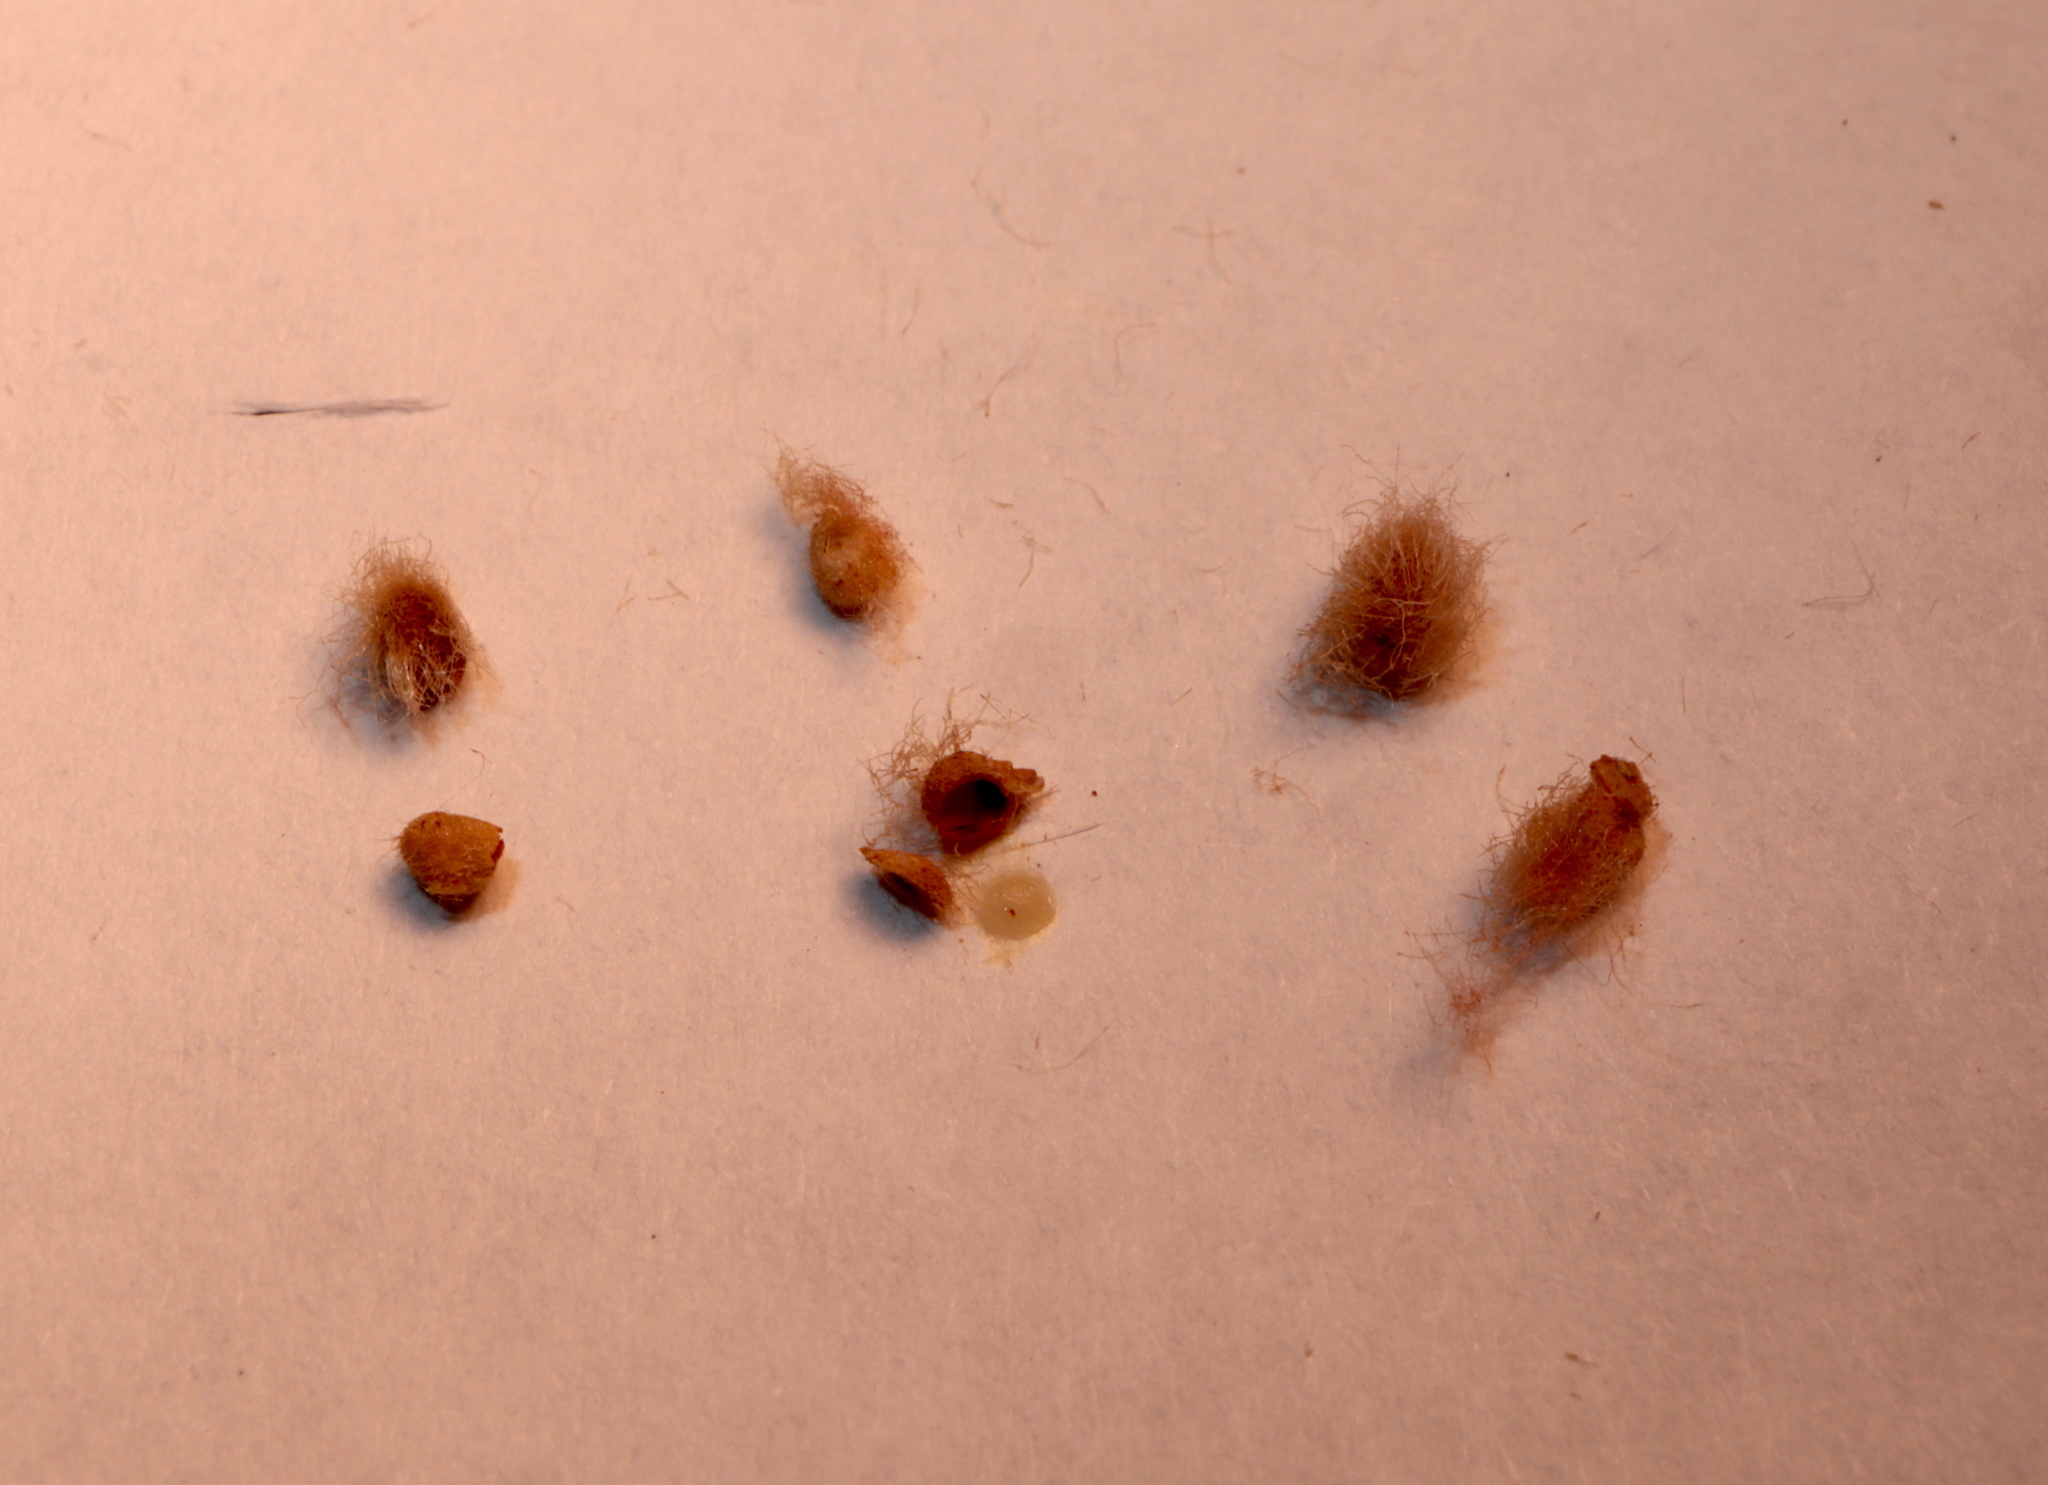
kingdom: Animalia
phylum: Arthropoda
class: Insecta
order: Hymenoptera
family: Cynipidae
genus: Andricus
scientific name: Andricus quercusflocci
